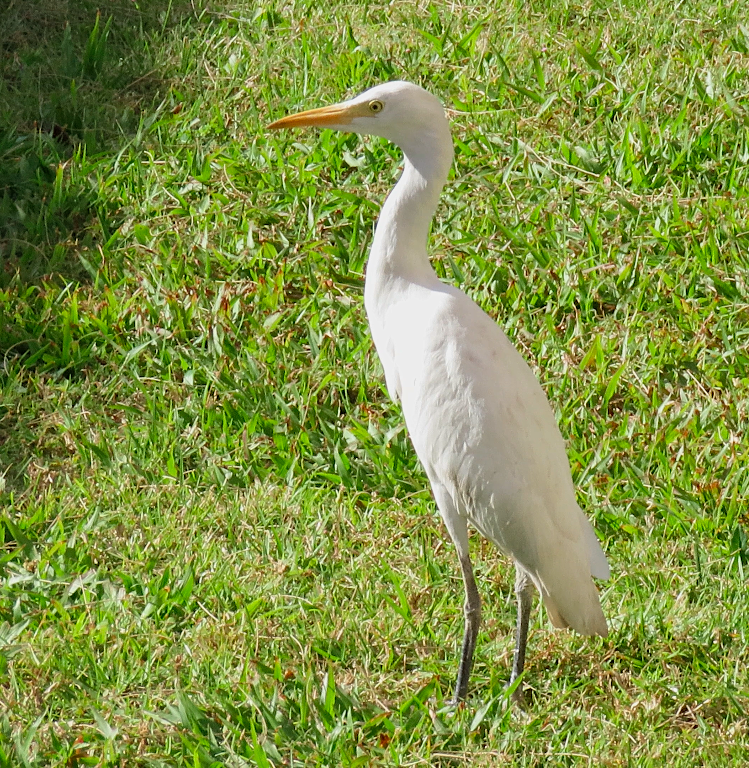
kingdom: Animalia
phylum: Chordata
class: Aves
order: Pelecaniformes
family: Ardeidae
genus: Bubulcus
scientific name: Bubulcus ibis
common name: Cattle egret
